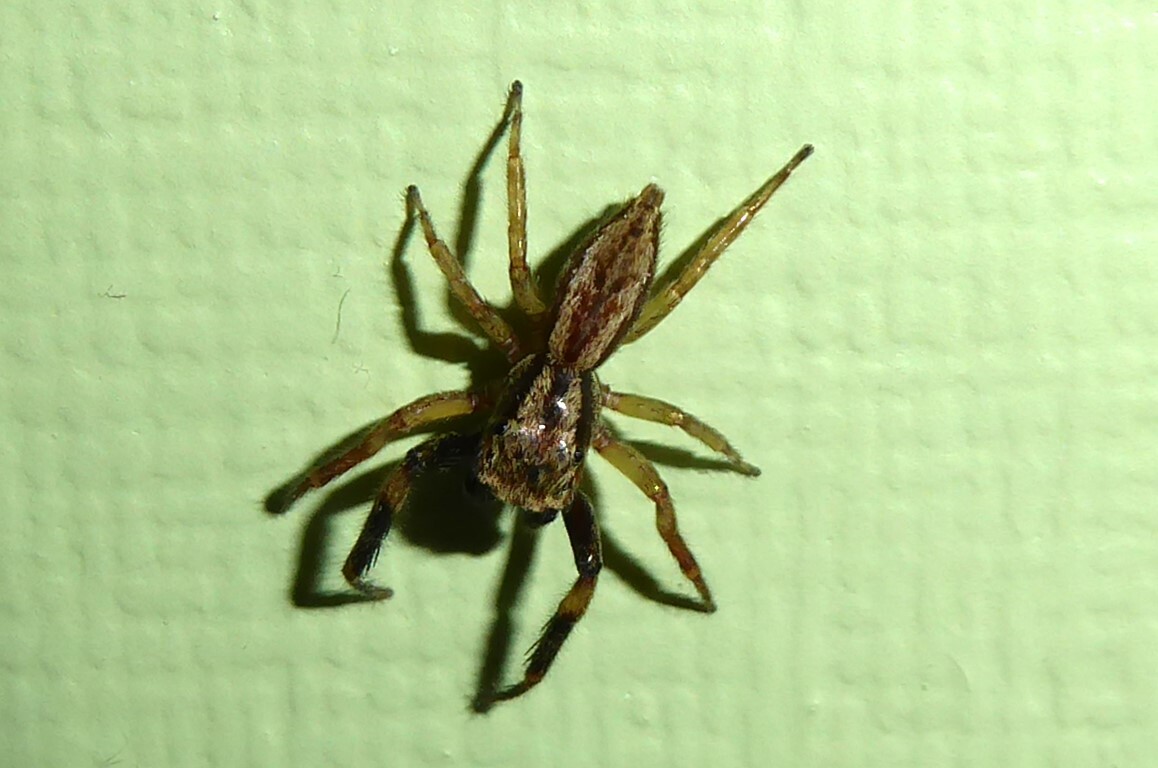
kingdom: Animalia
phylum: Arthropoda
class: Arachnida
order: Araneae
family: Salticidae
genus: Trite
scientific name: Trite auricoma
